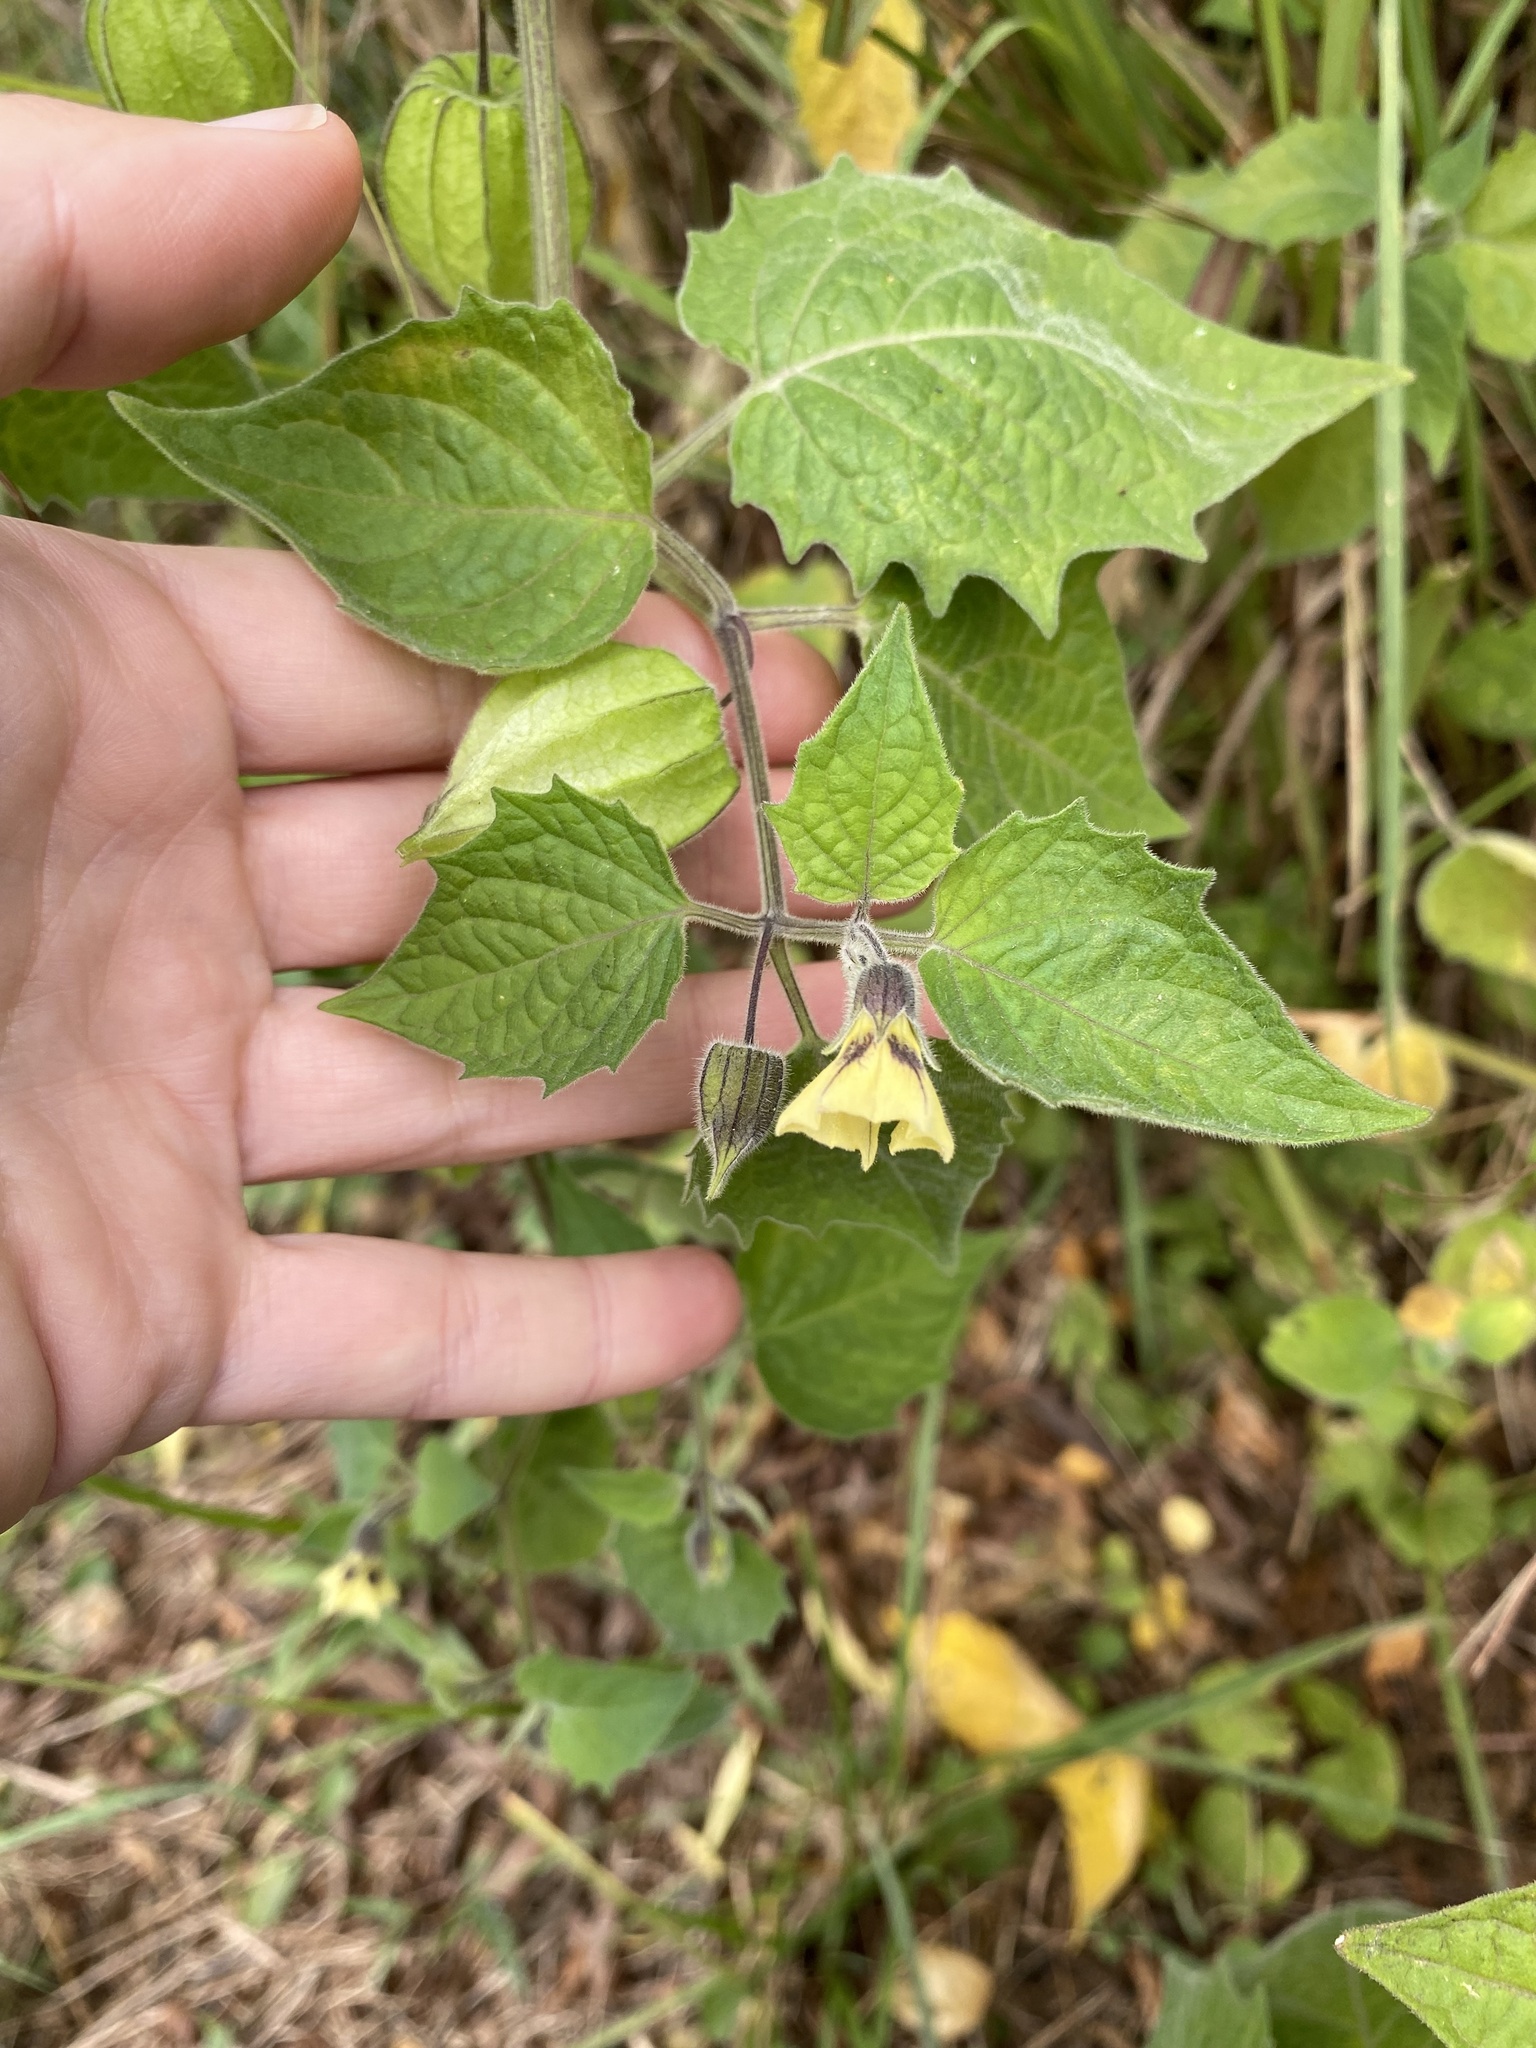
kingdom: Plantae
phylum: Tracheophyta
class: Magnoliopsida
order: Solanales
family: Solanaceae
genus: Physalis
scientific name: Physalis peruviana
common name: Cape-gooseberry
